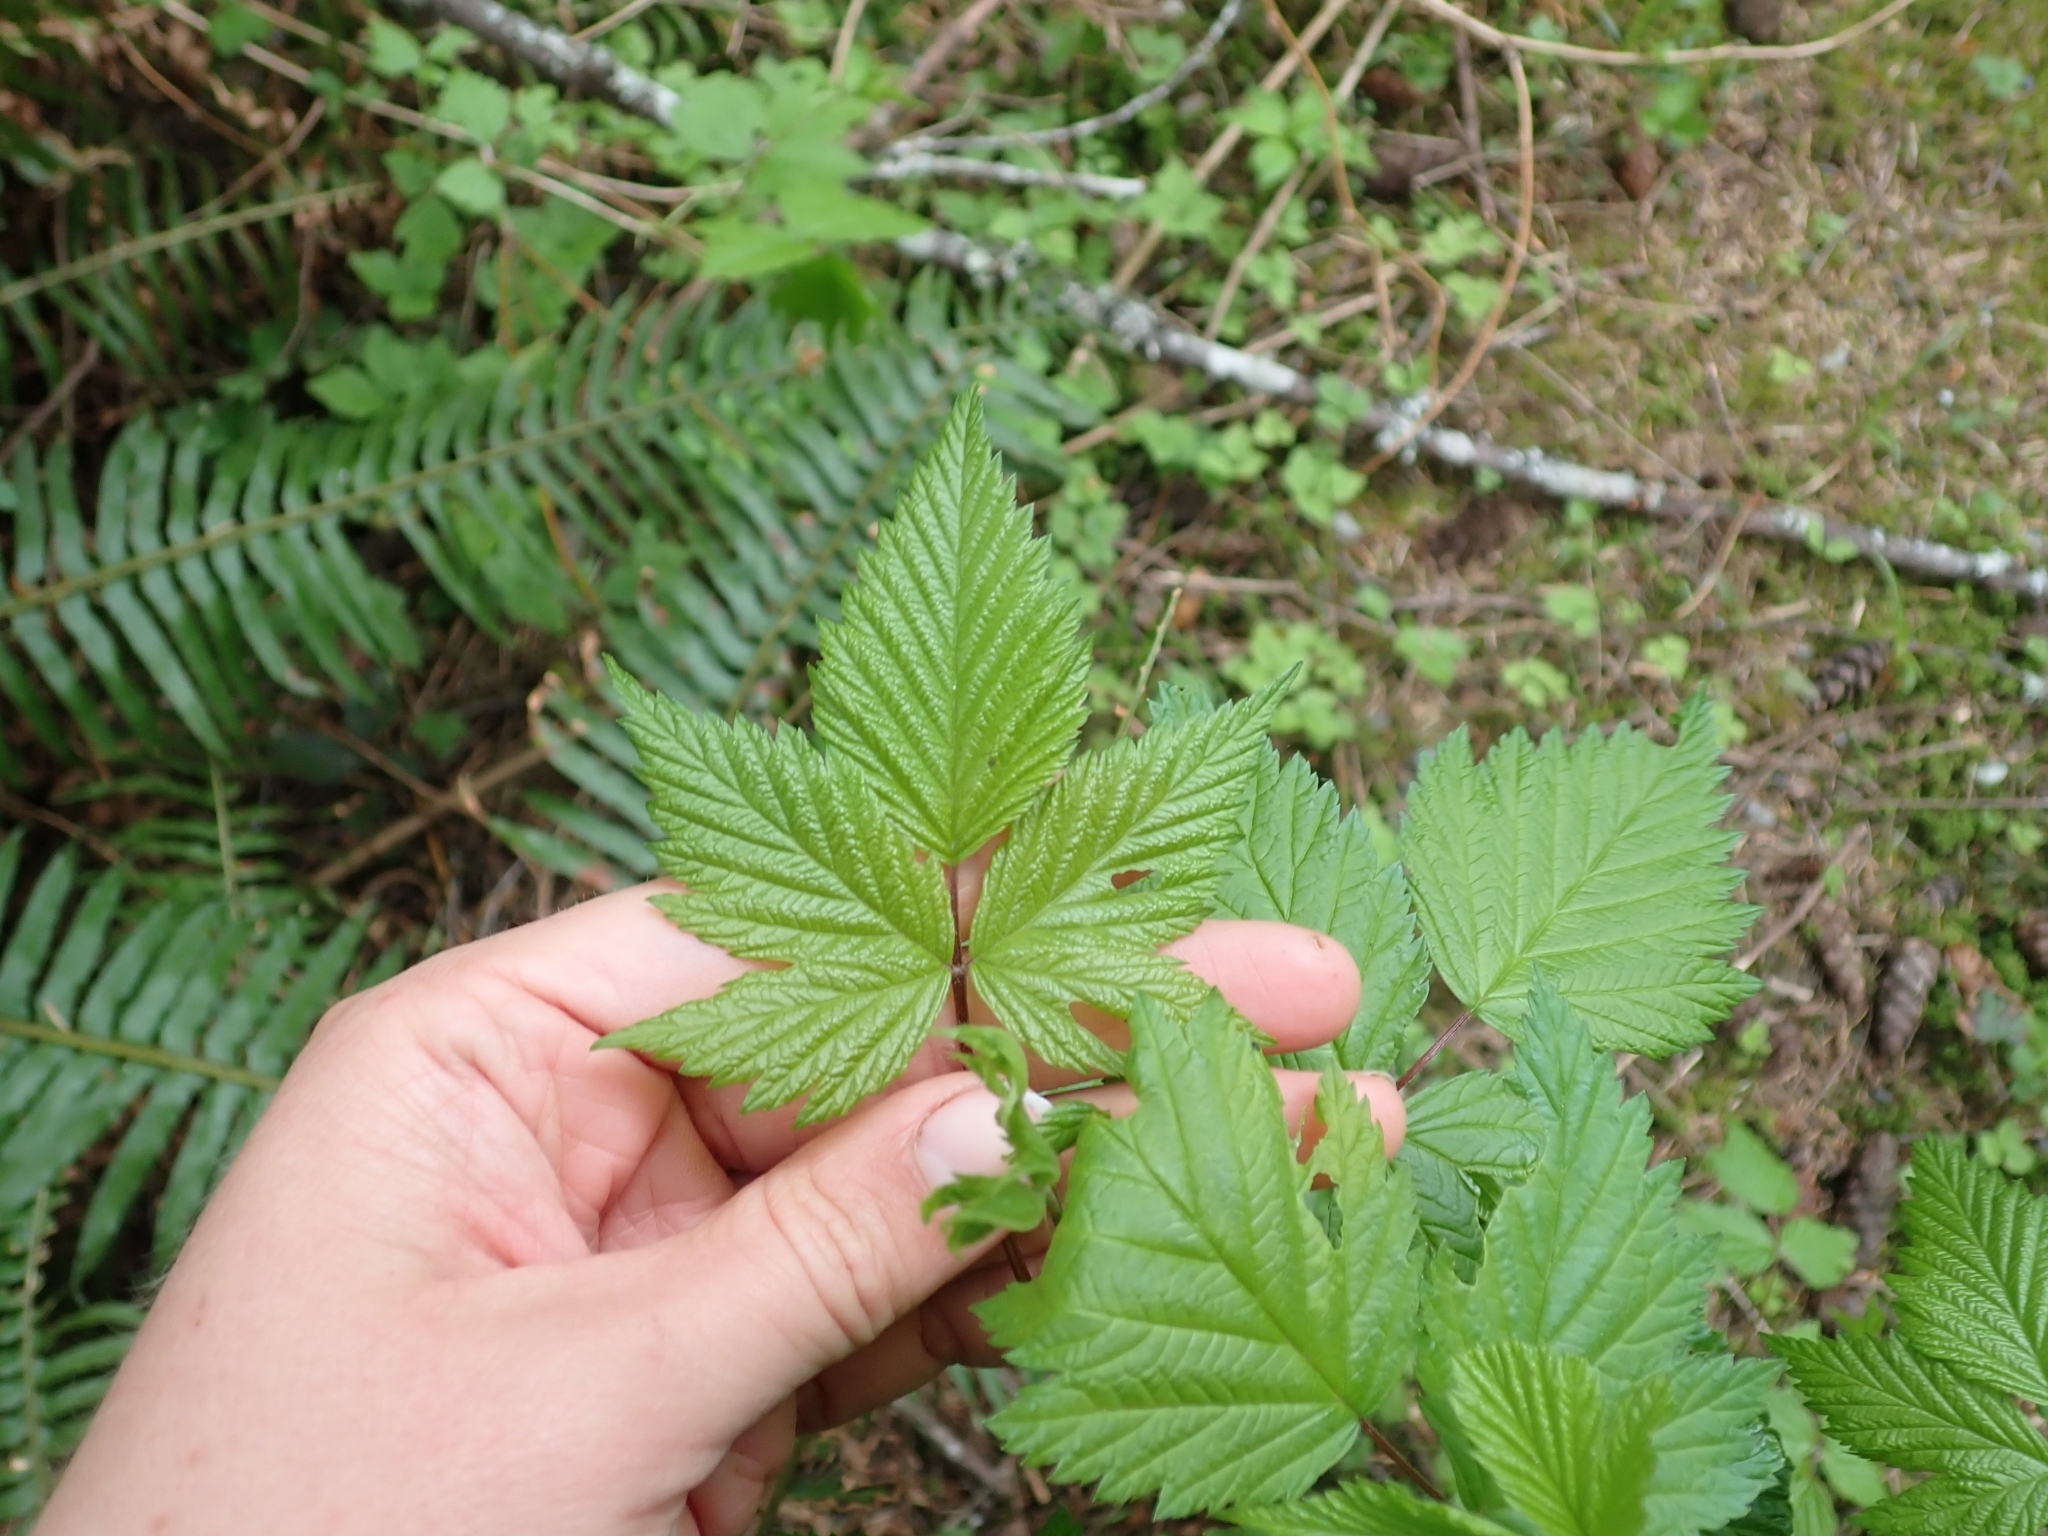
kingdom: Plantae
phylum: Tracheophyta
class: Magnoliopsida
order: Rosales
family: Rosaceae
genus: Rubus
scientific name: Rubus spectabilis
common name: Salmonberry
